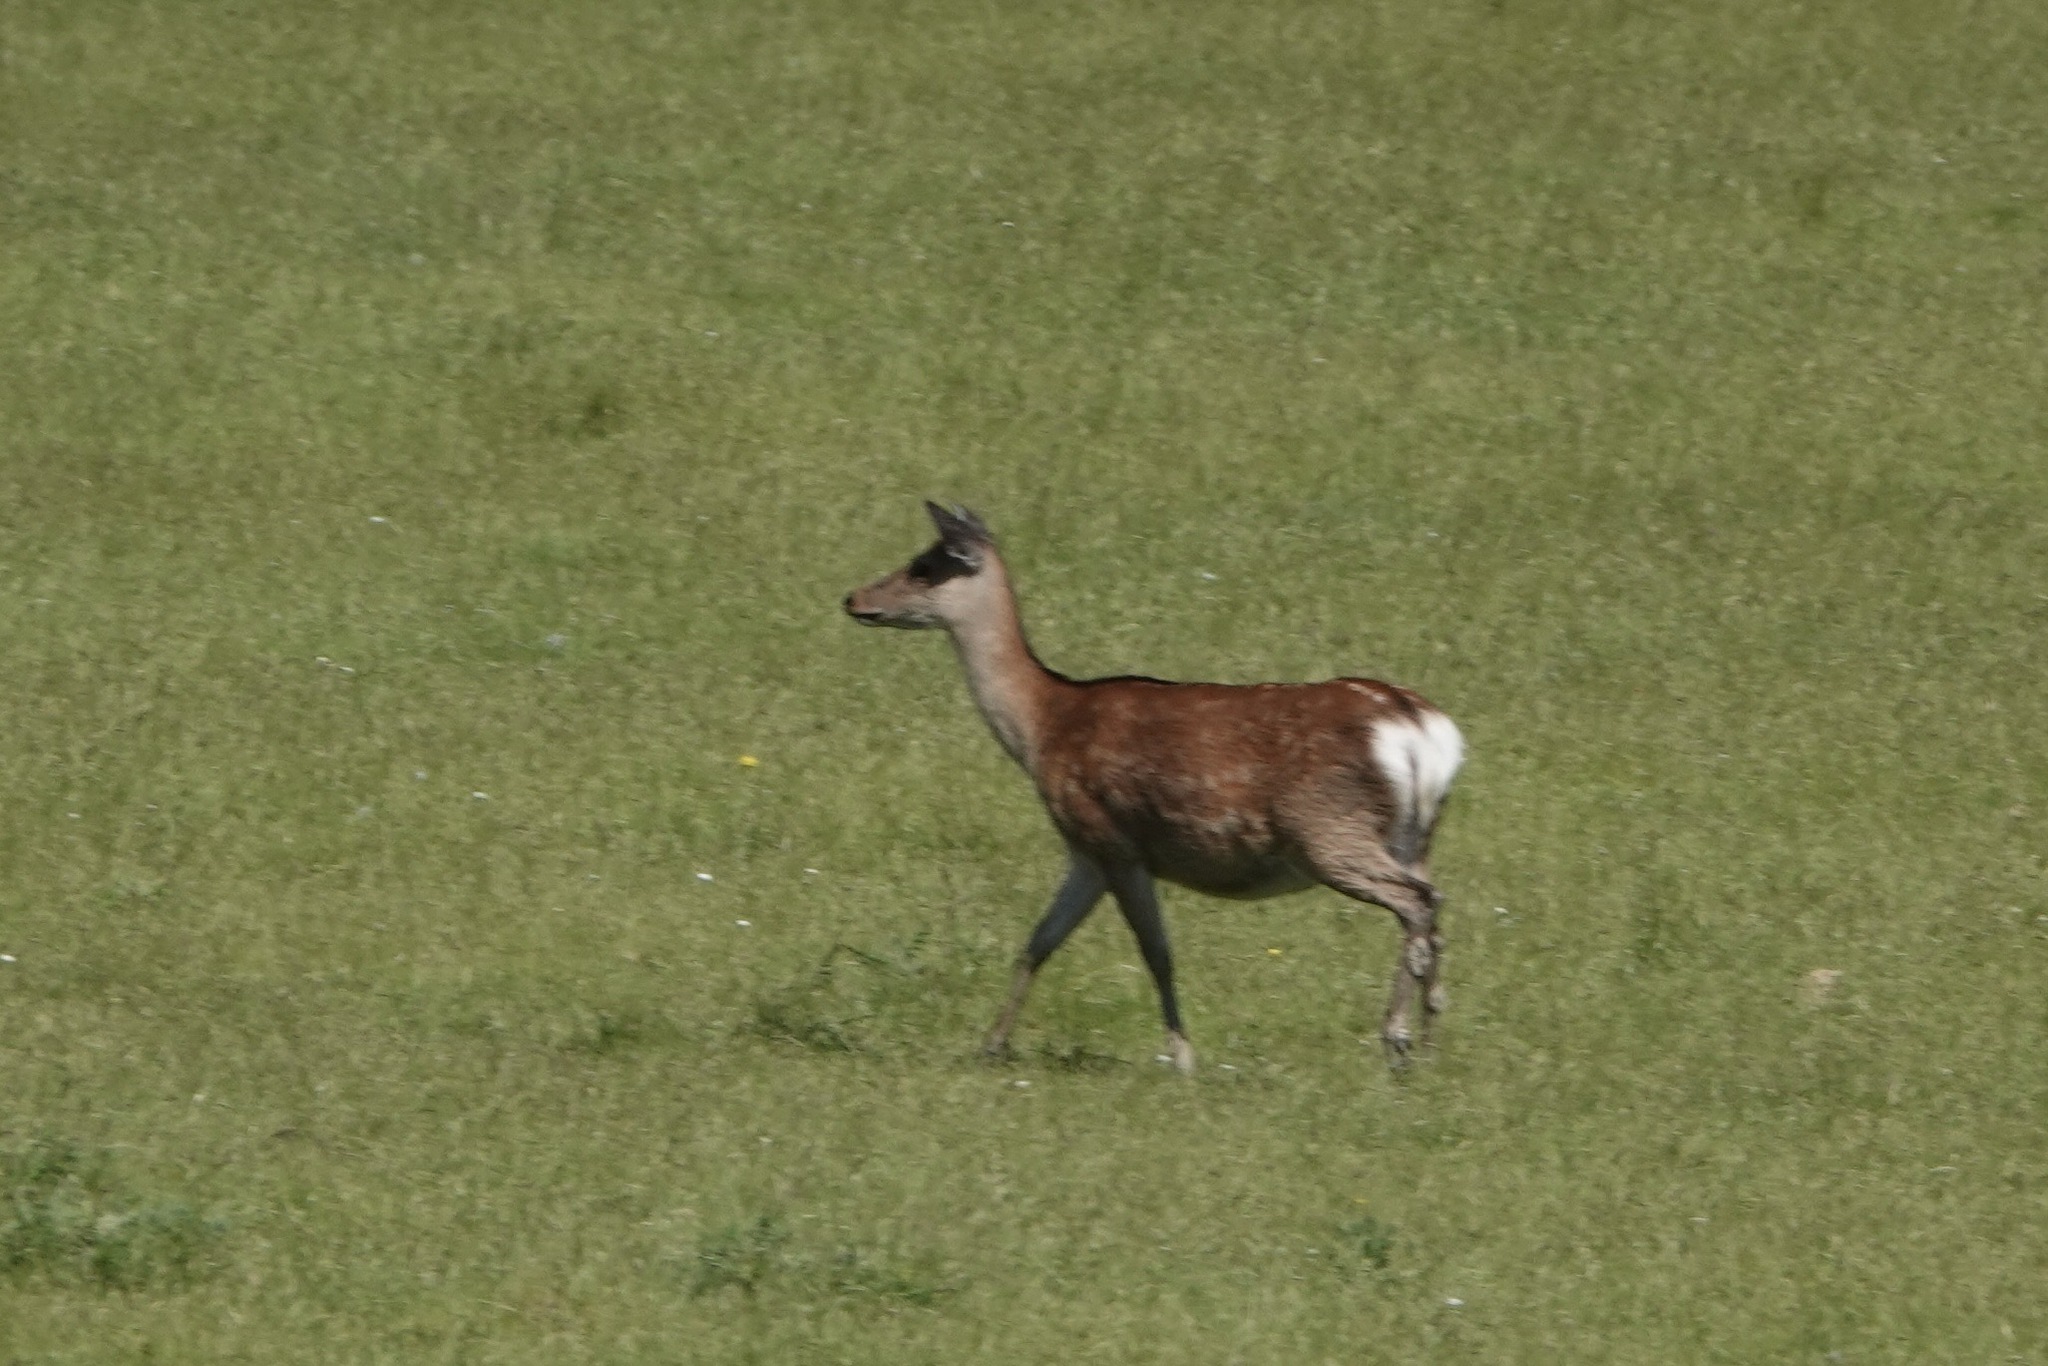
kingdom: Animalia
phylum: Chordata
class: Mammalia
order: Artiodactyla
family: Cervidae
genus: Cervus
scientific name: Cervus nippon
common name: Sika deer
